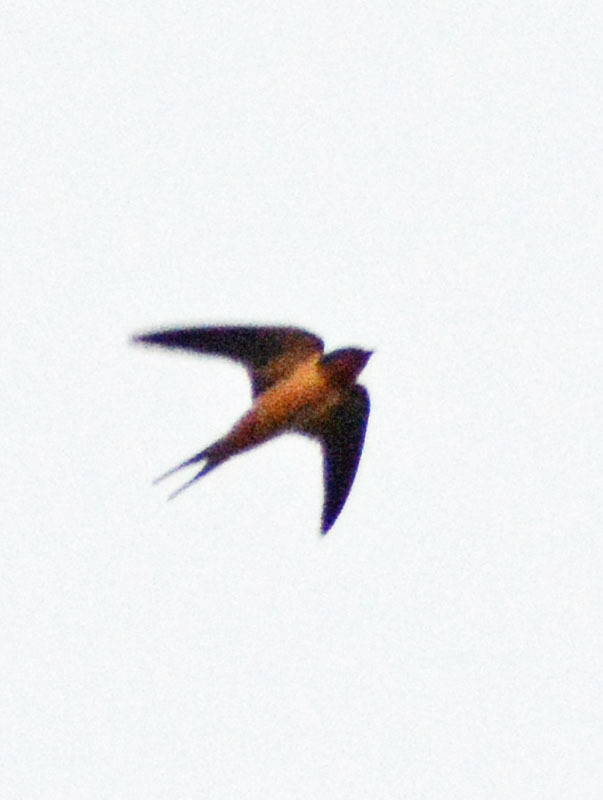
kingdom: Animalia
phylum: Chordata
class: Aves
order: Passeriformes
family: Hirundinidae
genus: Hirundo
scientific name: Hirundo rustica
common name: Barn swallow
